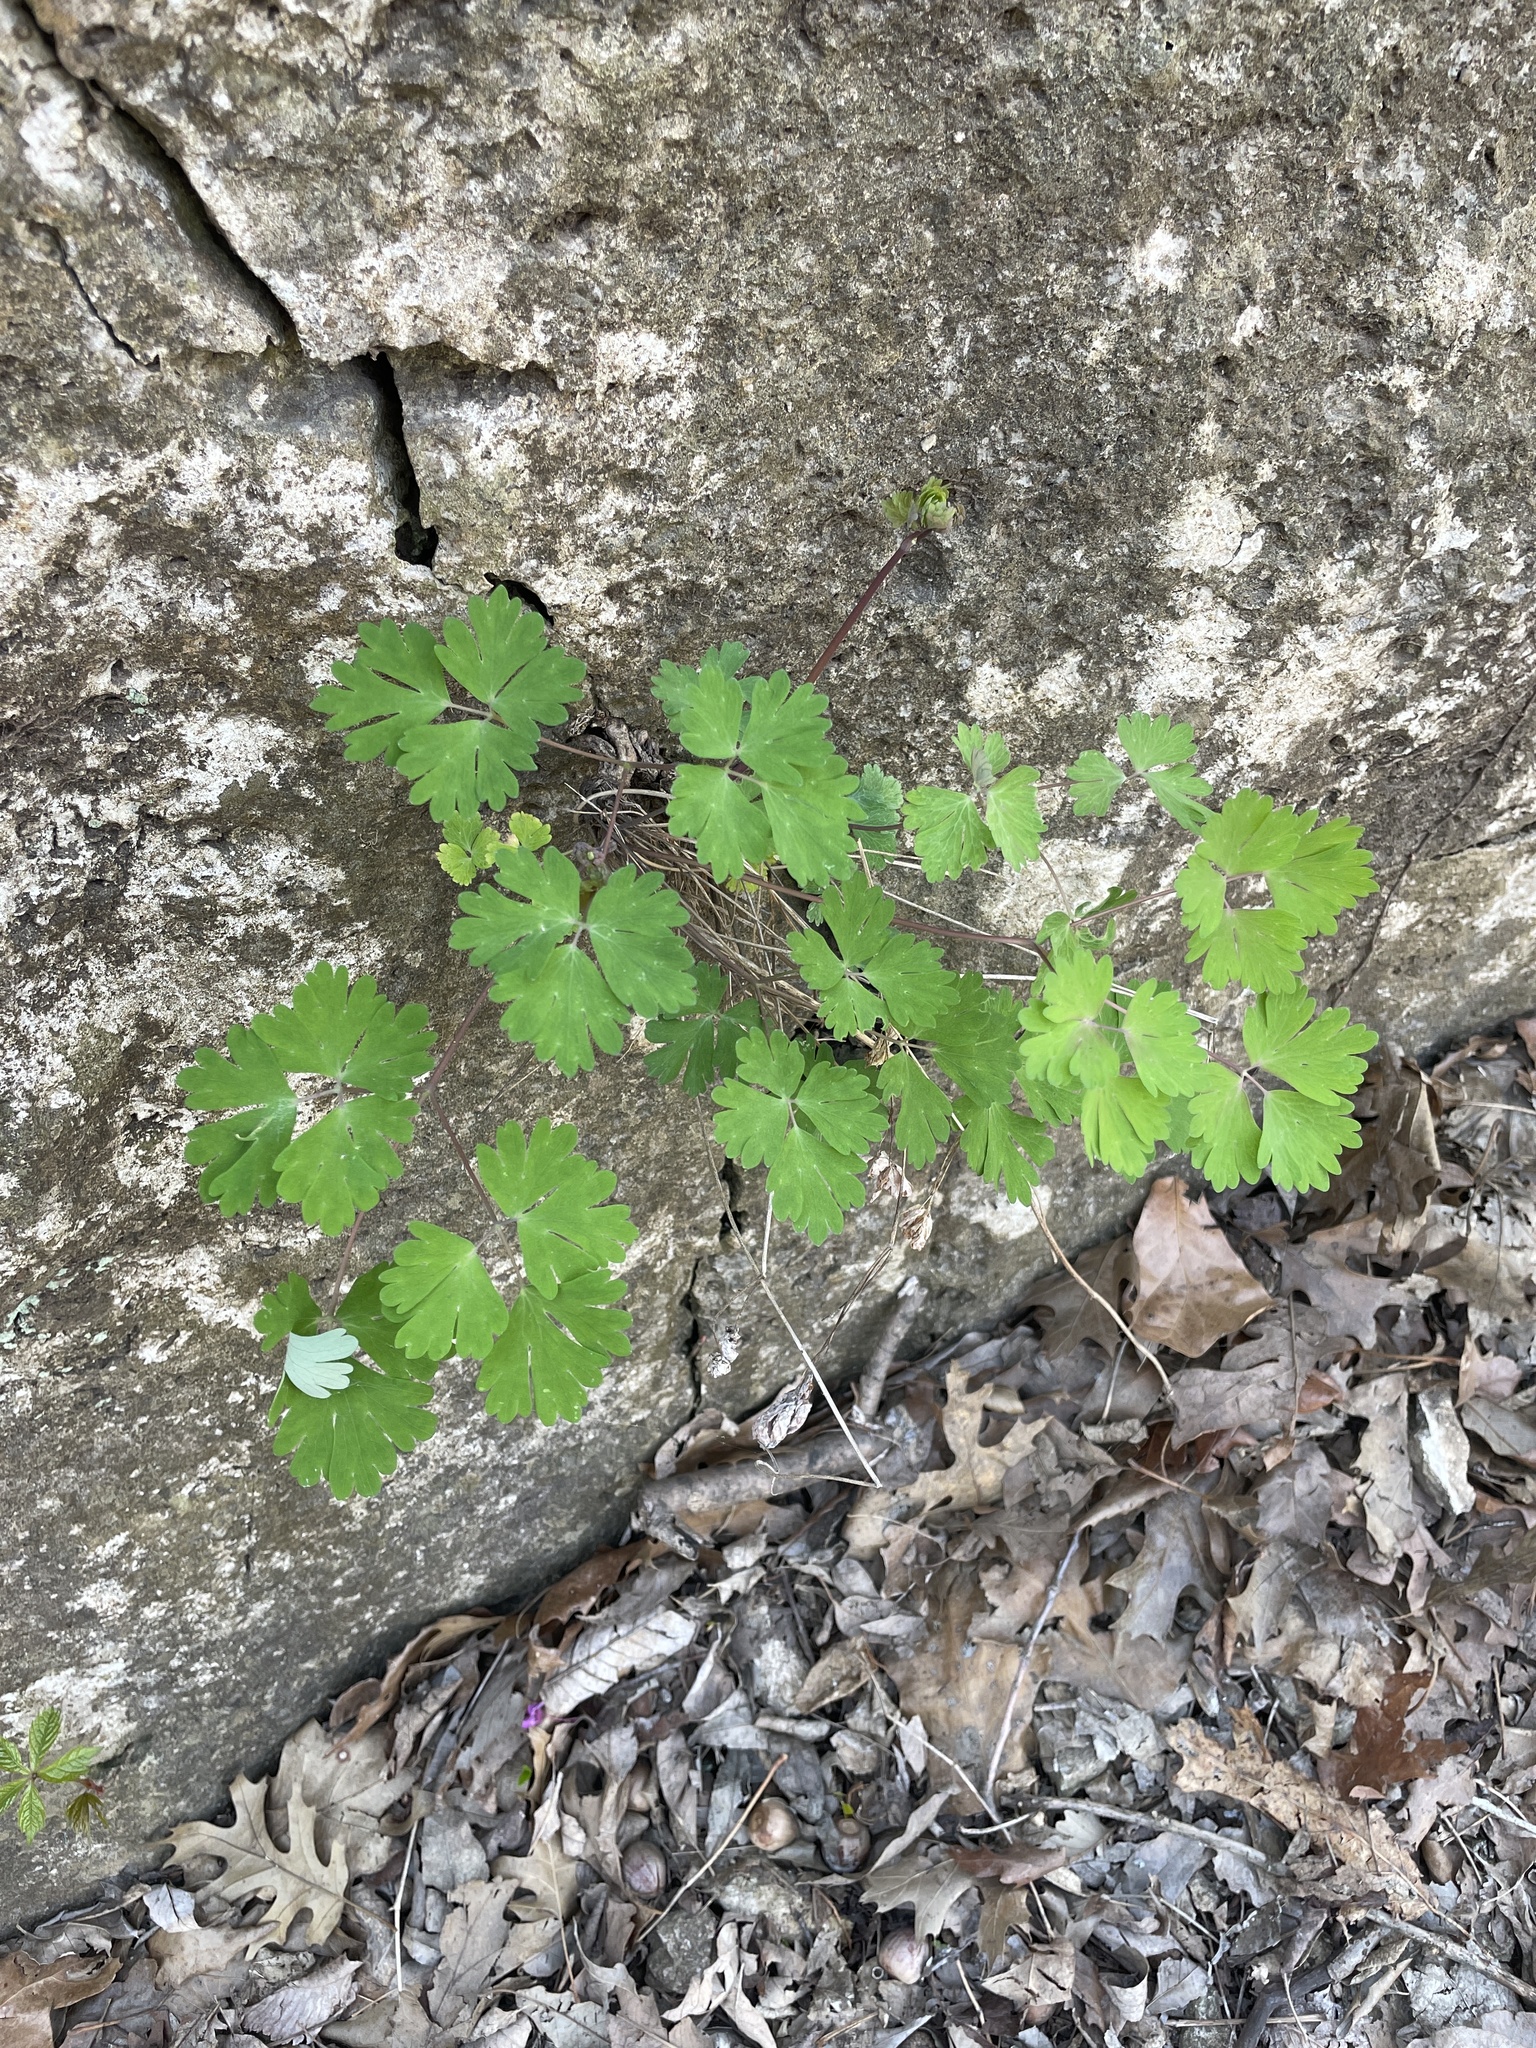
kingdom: Plantae
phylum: Tracheophyta
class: Magnoliopsida
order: Ranunculales
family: Ranunculaceae
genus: Aquilegia
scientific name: Aquilegia canadensis
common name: American columbine
